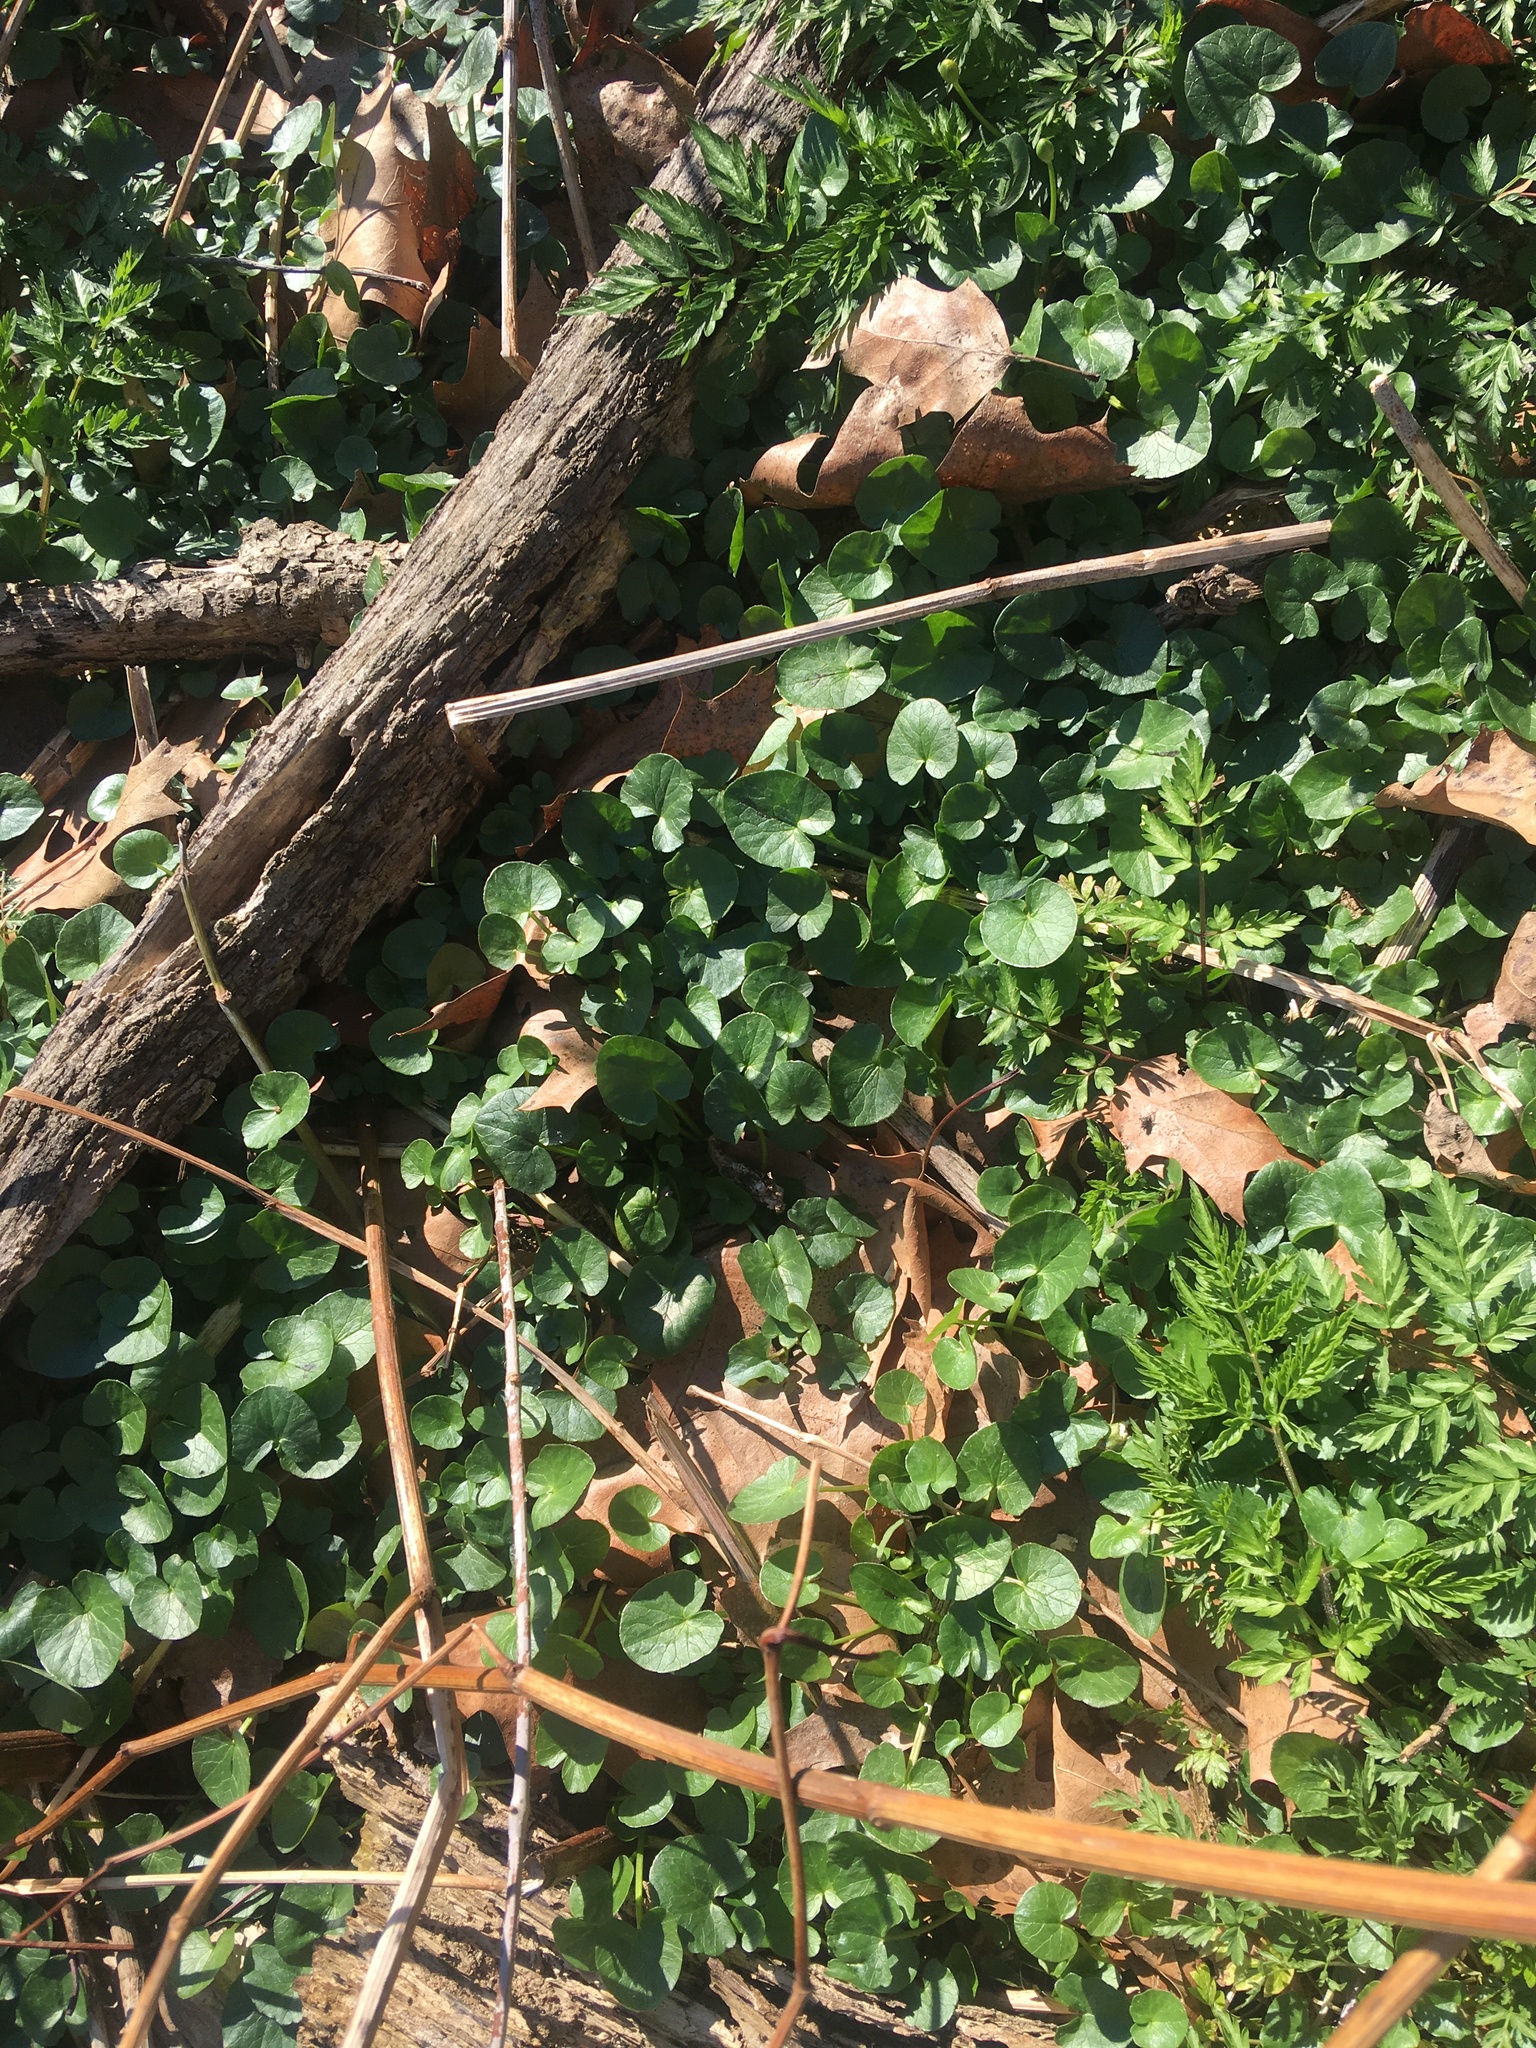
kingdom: Plantae
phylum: Tracheophyta
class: Magnoliopsida
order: Ranunculales
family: Ranunculaceae
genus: Ficaria
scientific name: Ficaria verna
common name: Lesser celandine
